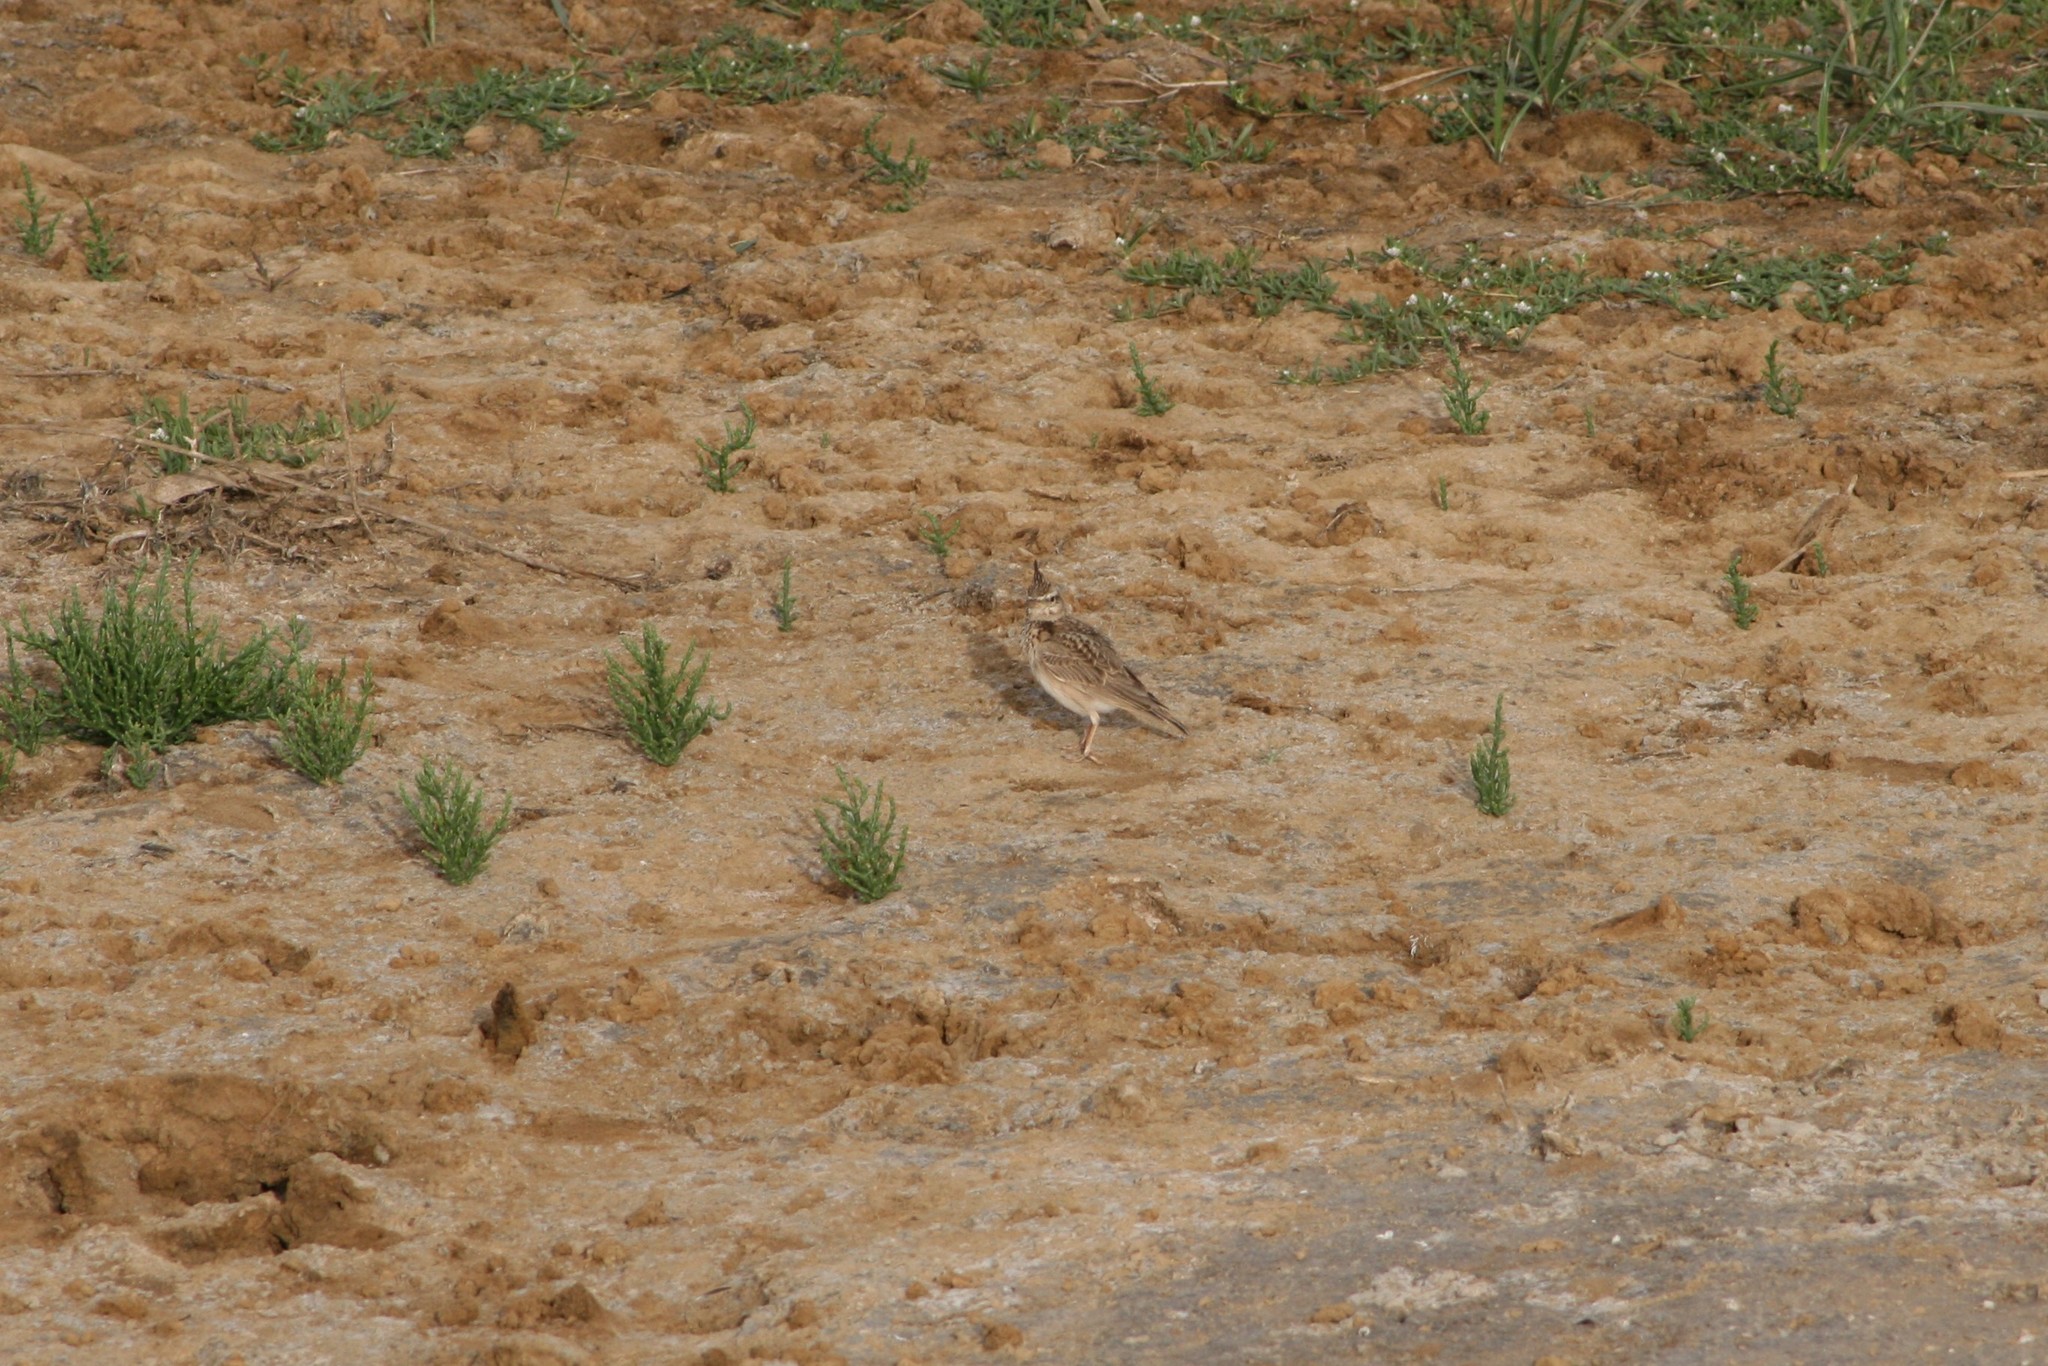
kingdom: Animalia
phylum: Chordata
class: Aves
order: Passeriformes
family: Alaudidae
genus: Galerida
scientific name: Galerida cristata
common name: Crested lark
